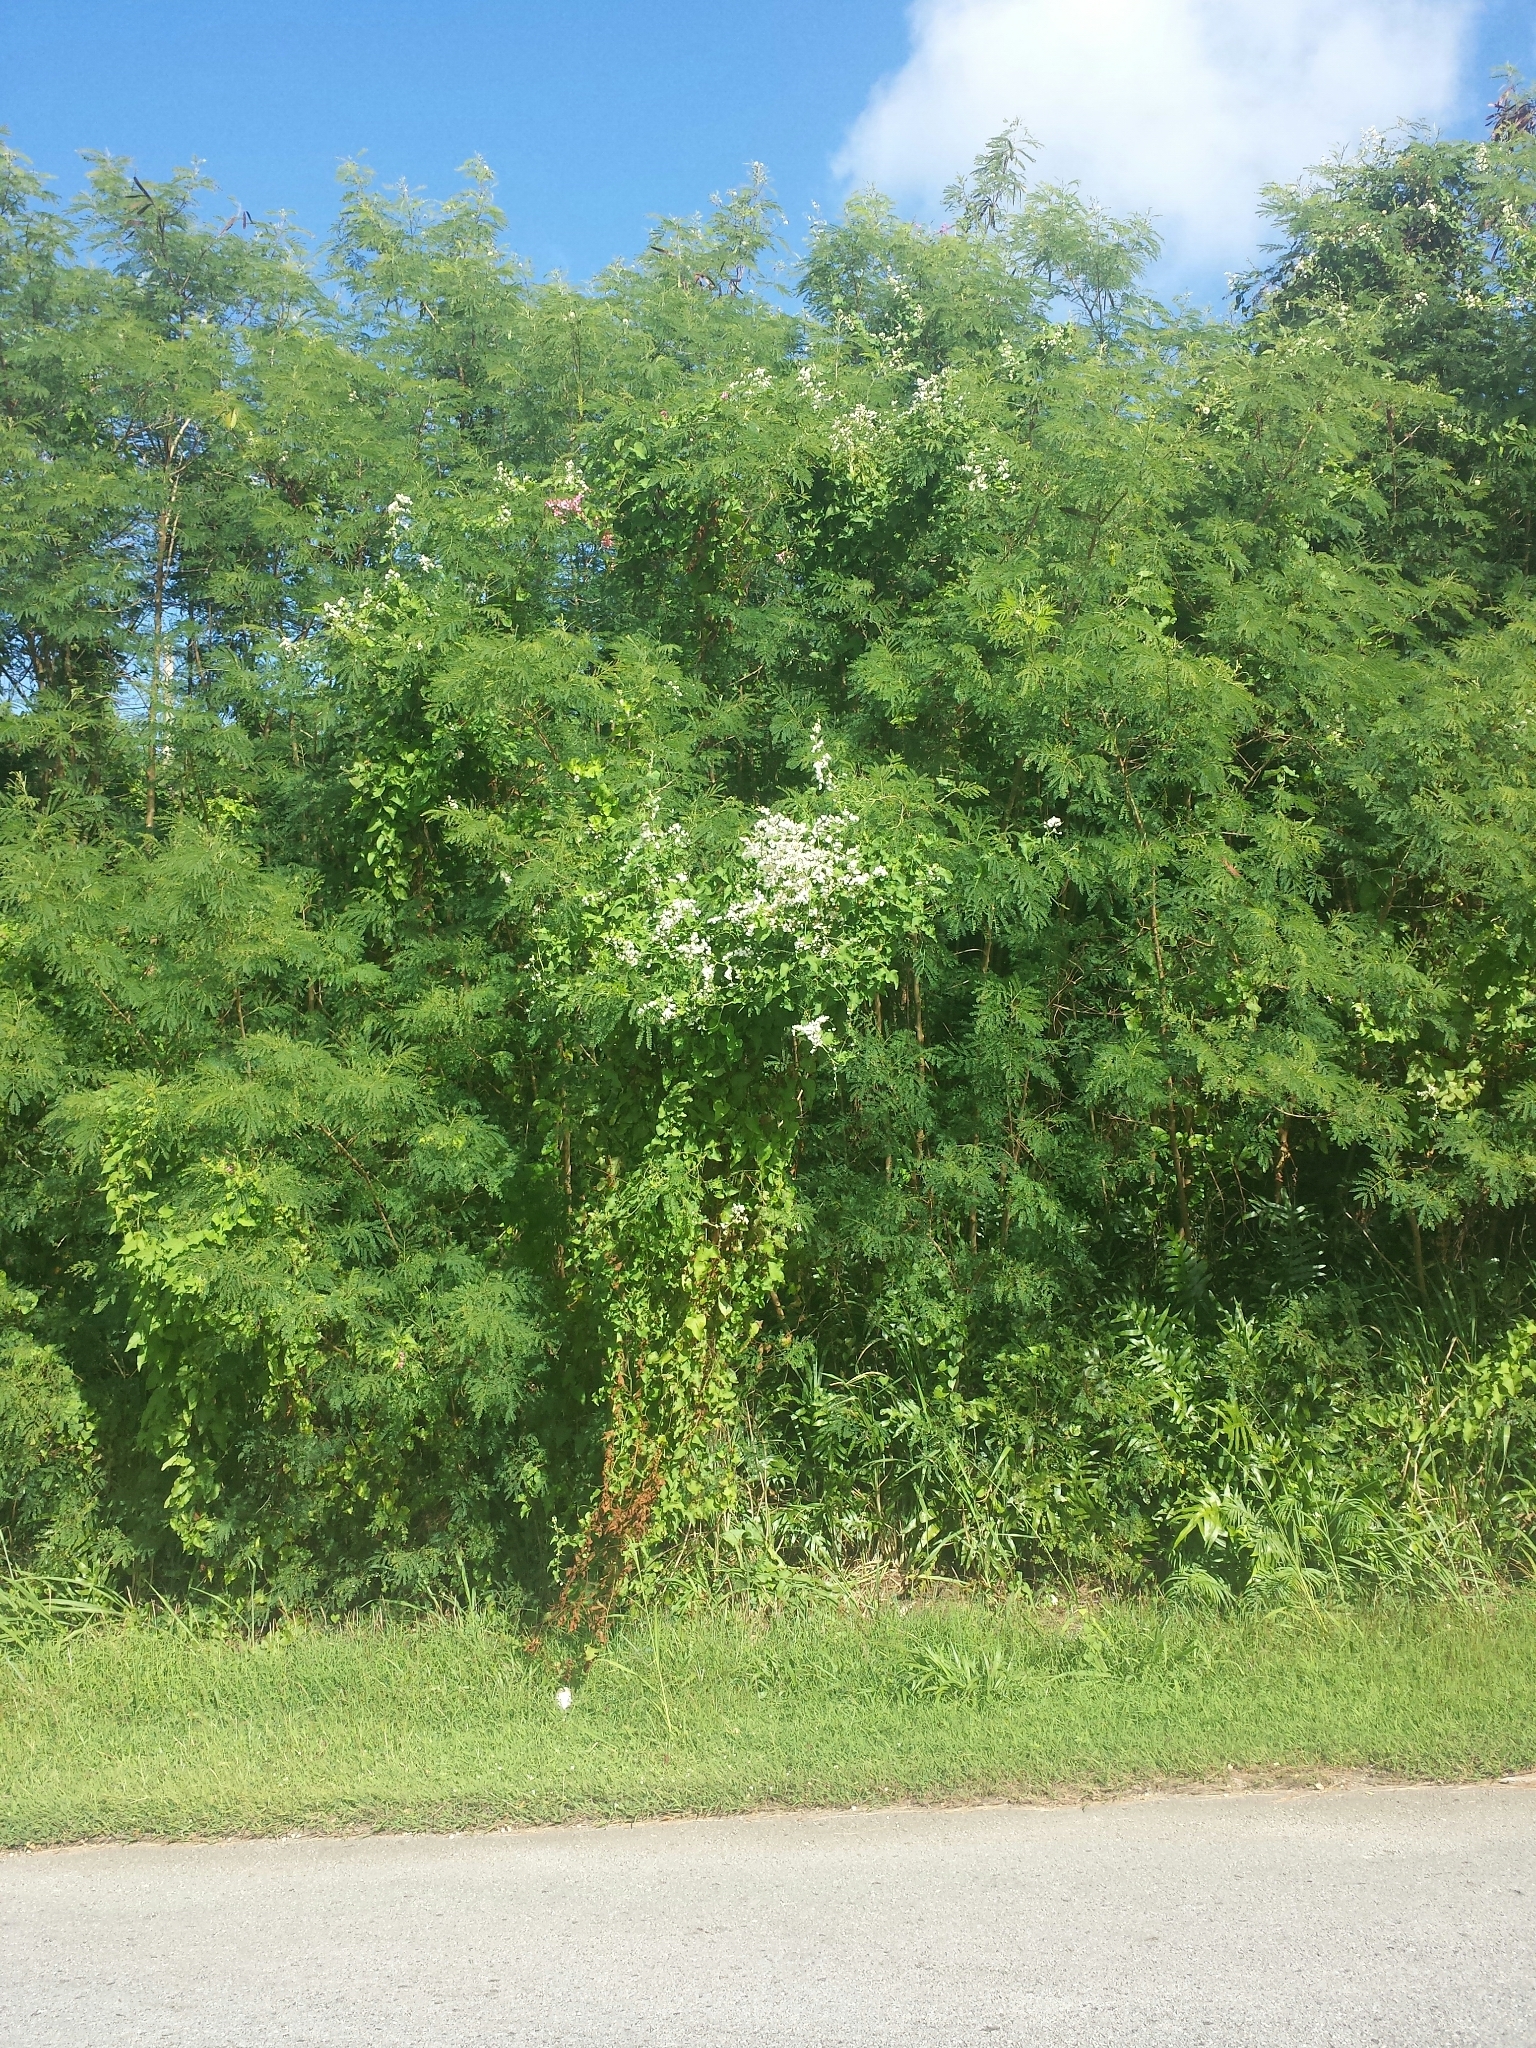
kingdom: Plantae
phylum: Tracheophyta
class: Magnoliopsida
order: Caryophyllales
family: Polygonaceae
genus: Antigonon
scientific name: Antigonon leptopus
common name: Coral vine
